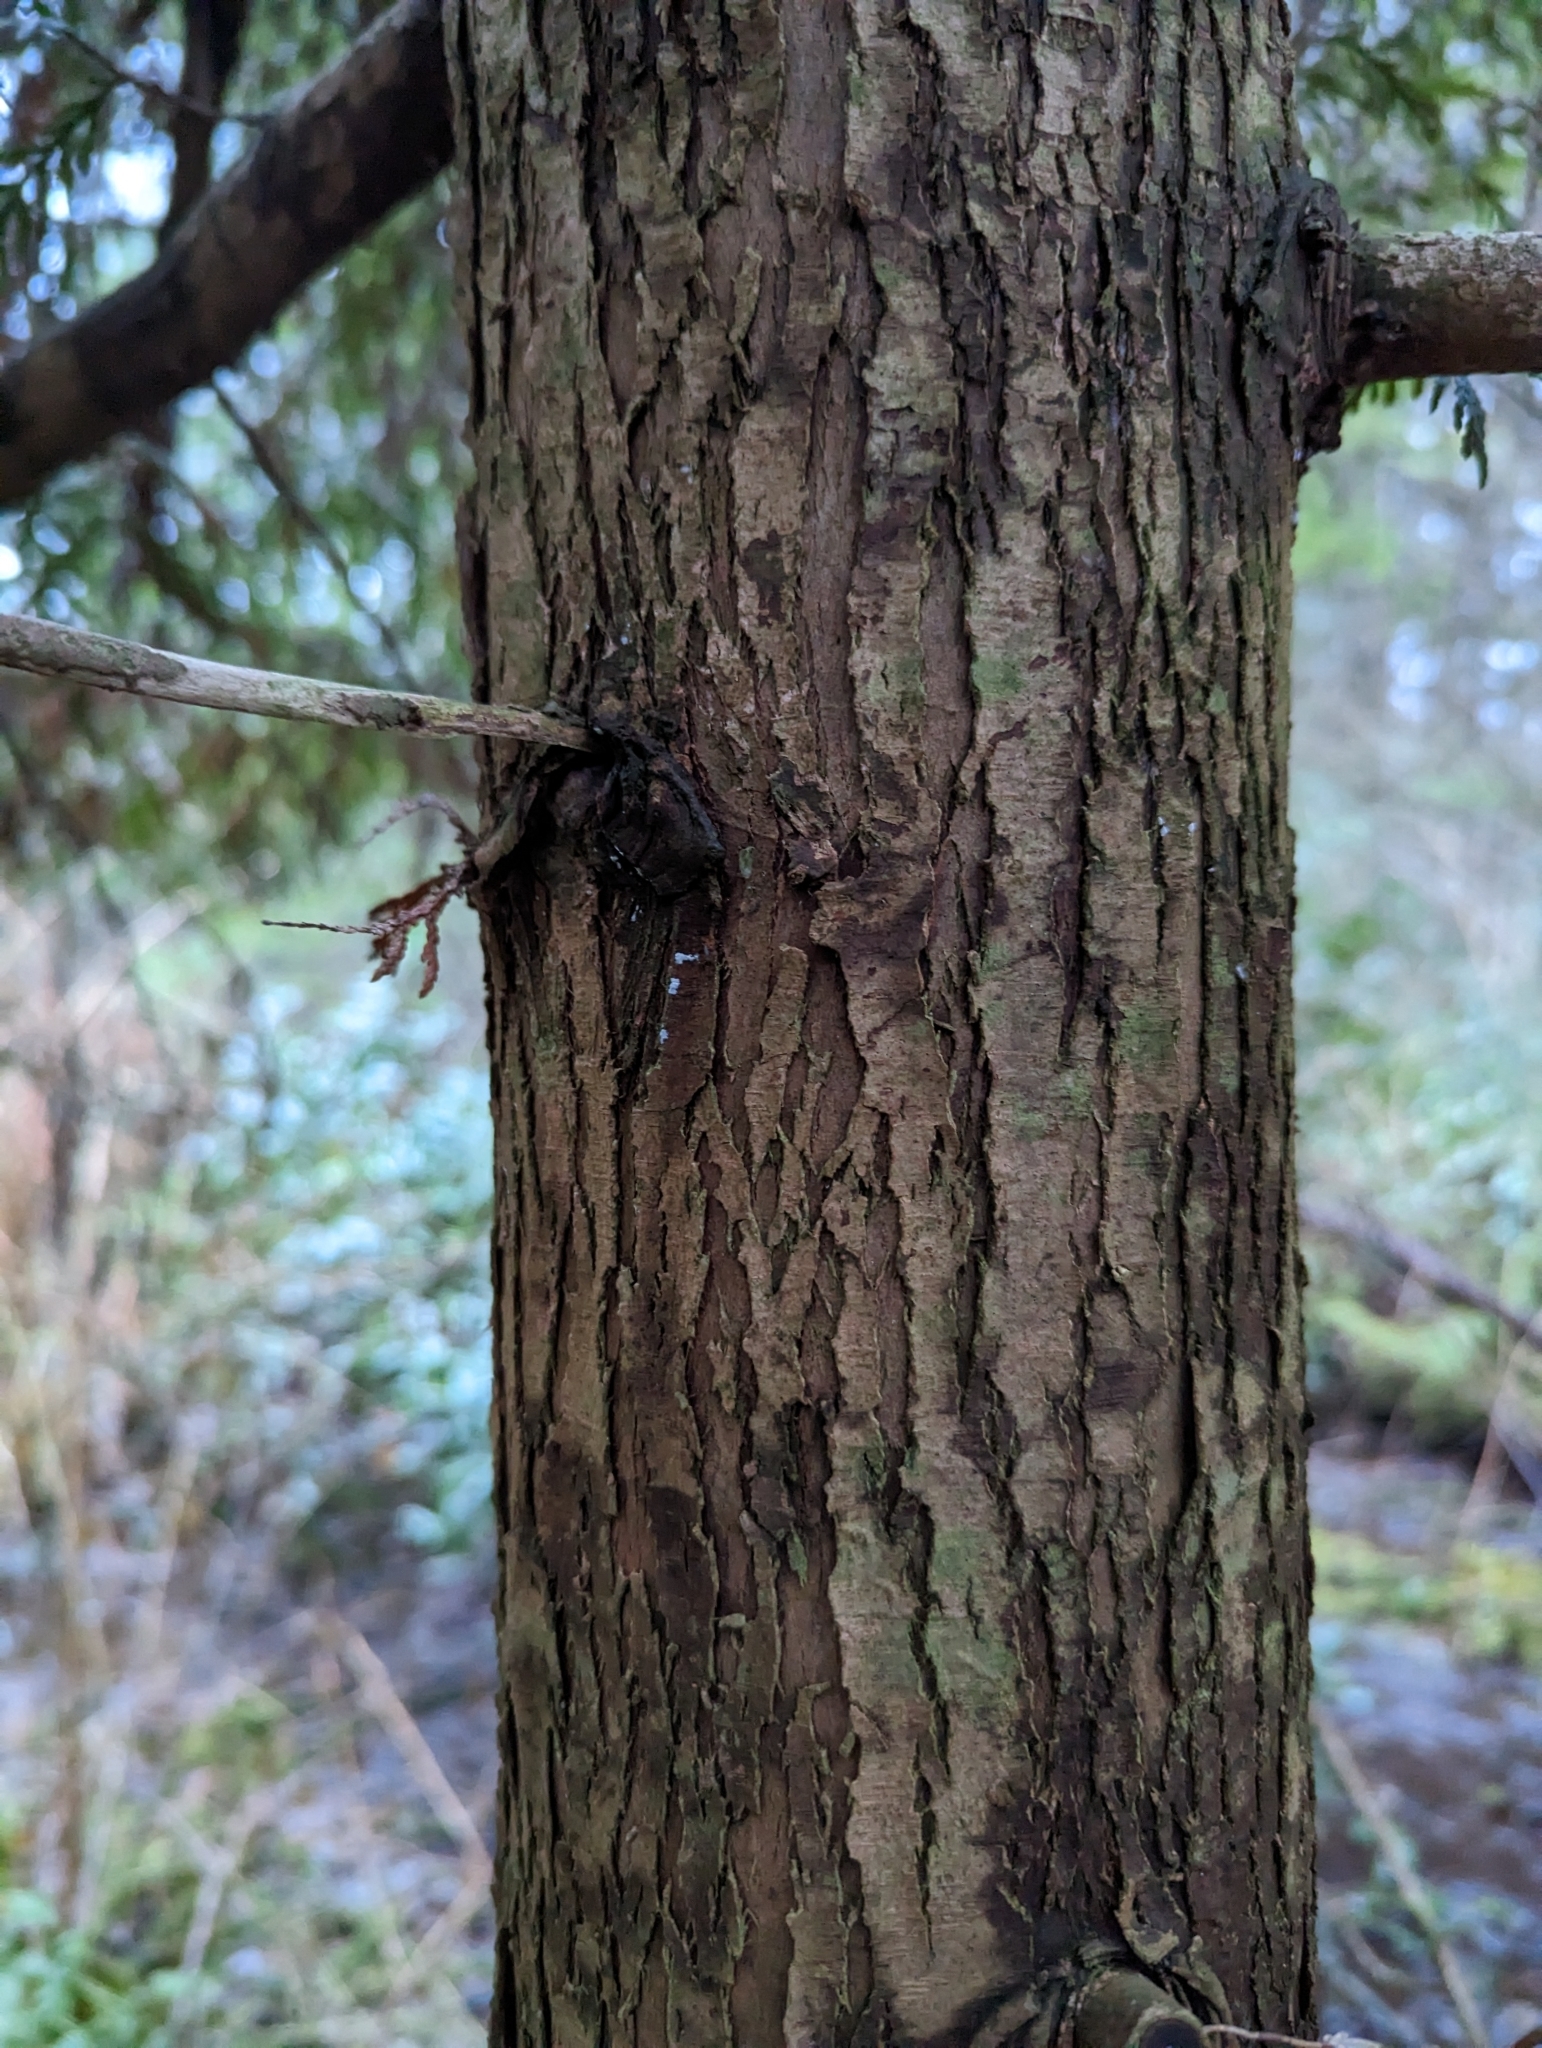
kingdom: Plantae
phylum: Tracheophyta
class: Pinopsida
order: Pinales
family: Cupressaceae
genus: Thuja
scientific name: Thuja plicata
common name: Western red-cedar
